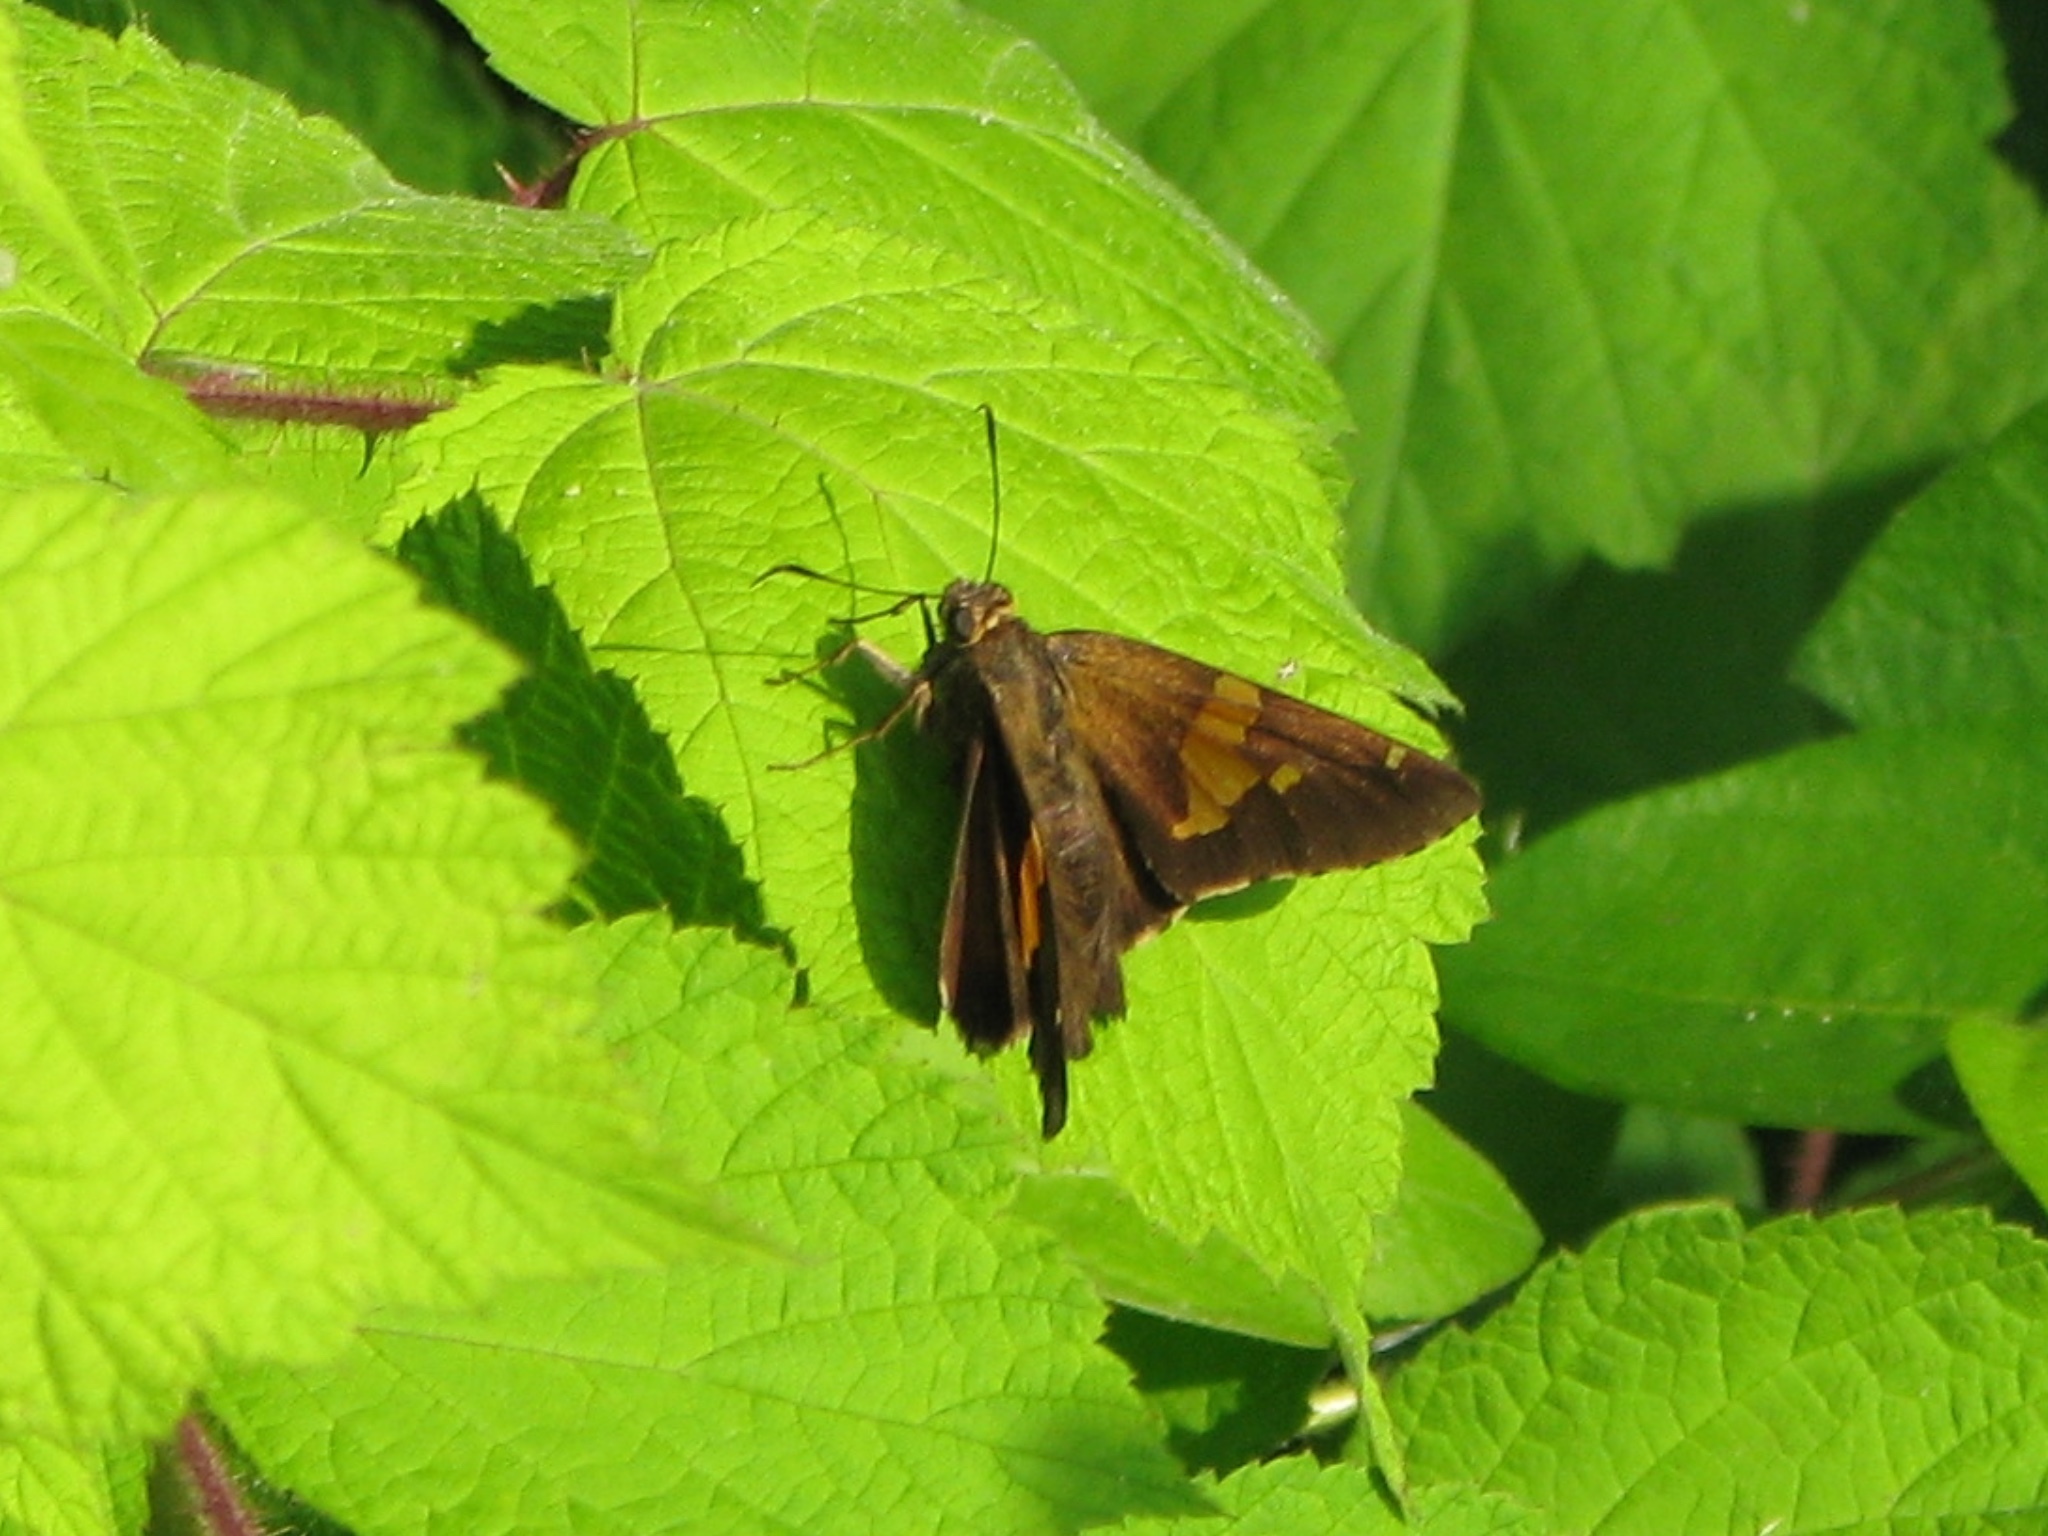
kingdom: Animalia
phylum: Arthropoda
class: Insecta
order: Lepidoptera
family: Hesperiidae
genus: Epargyreus
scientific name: Epargyreus clarus
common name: Silver-spotted skipper
